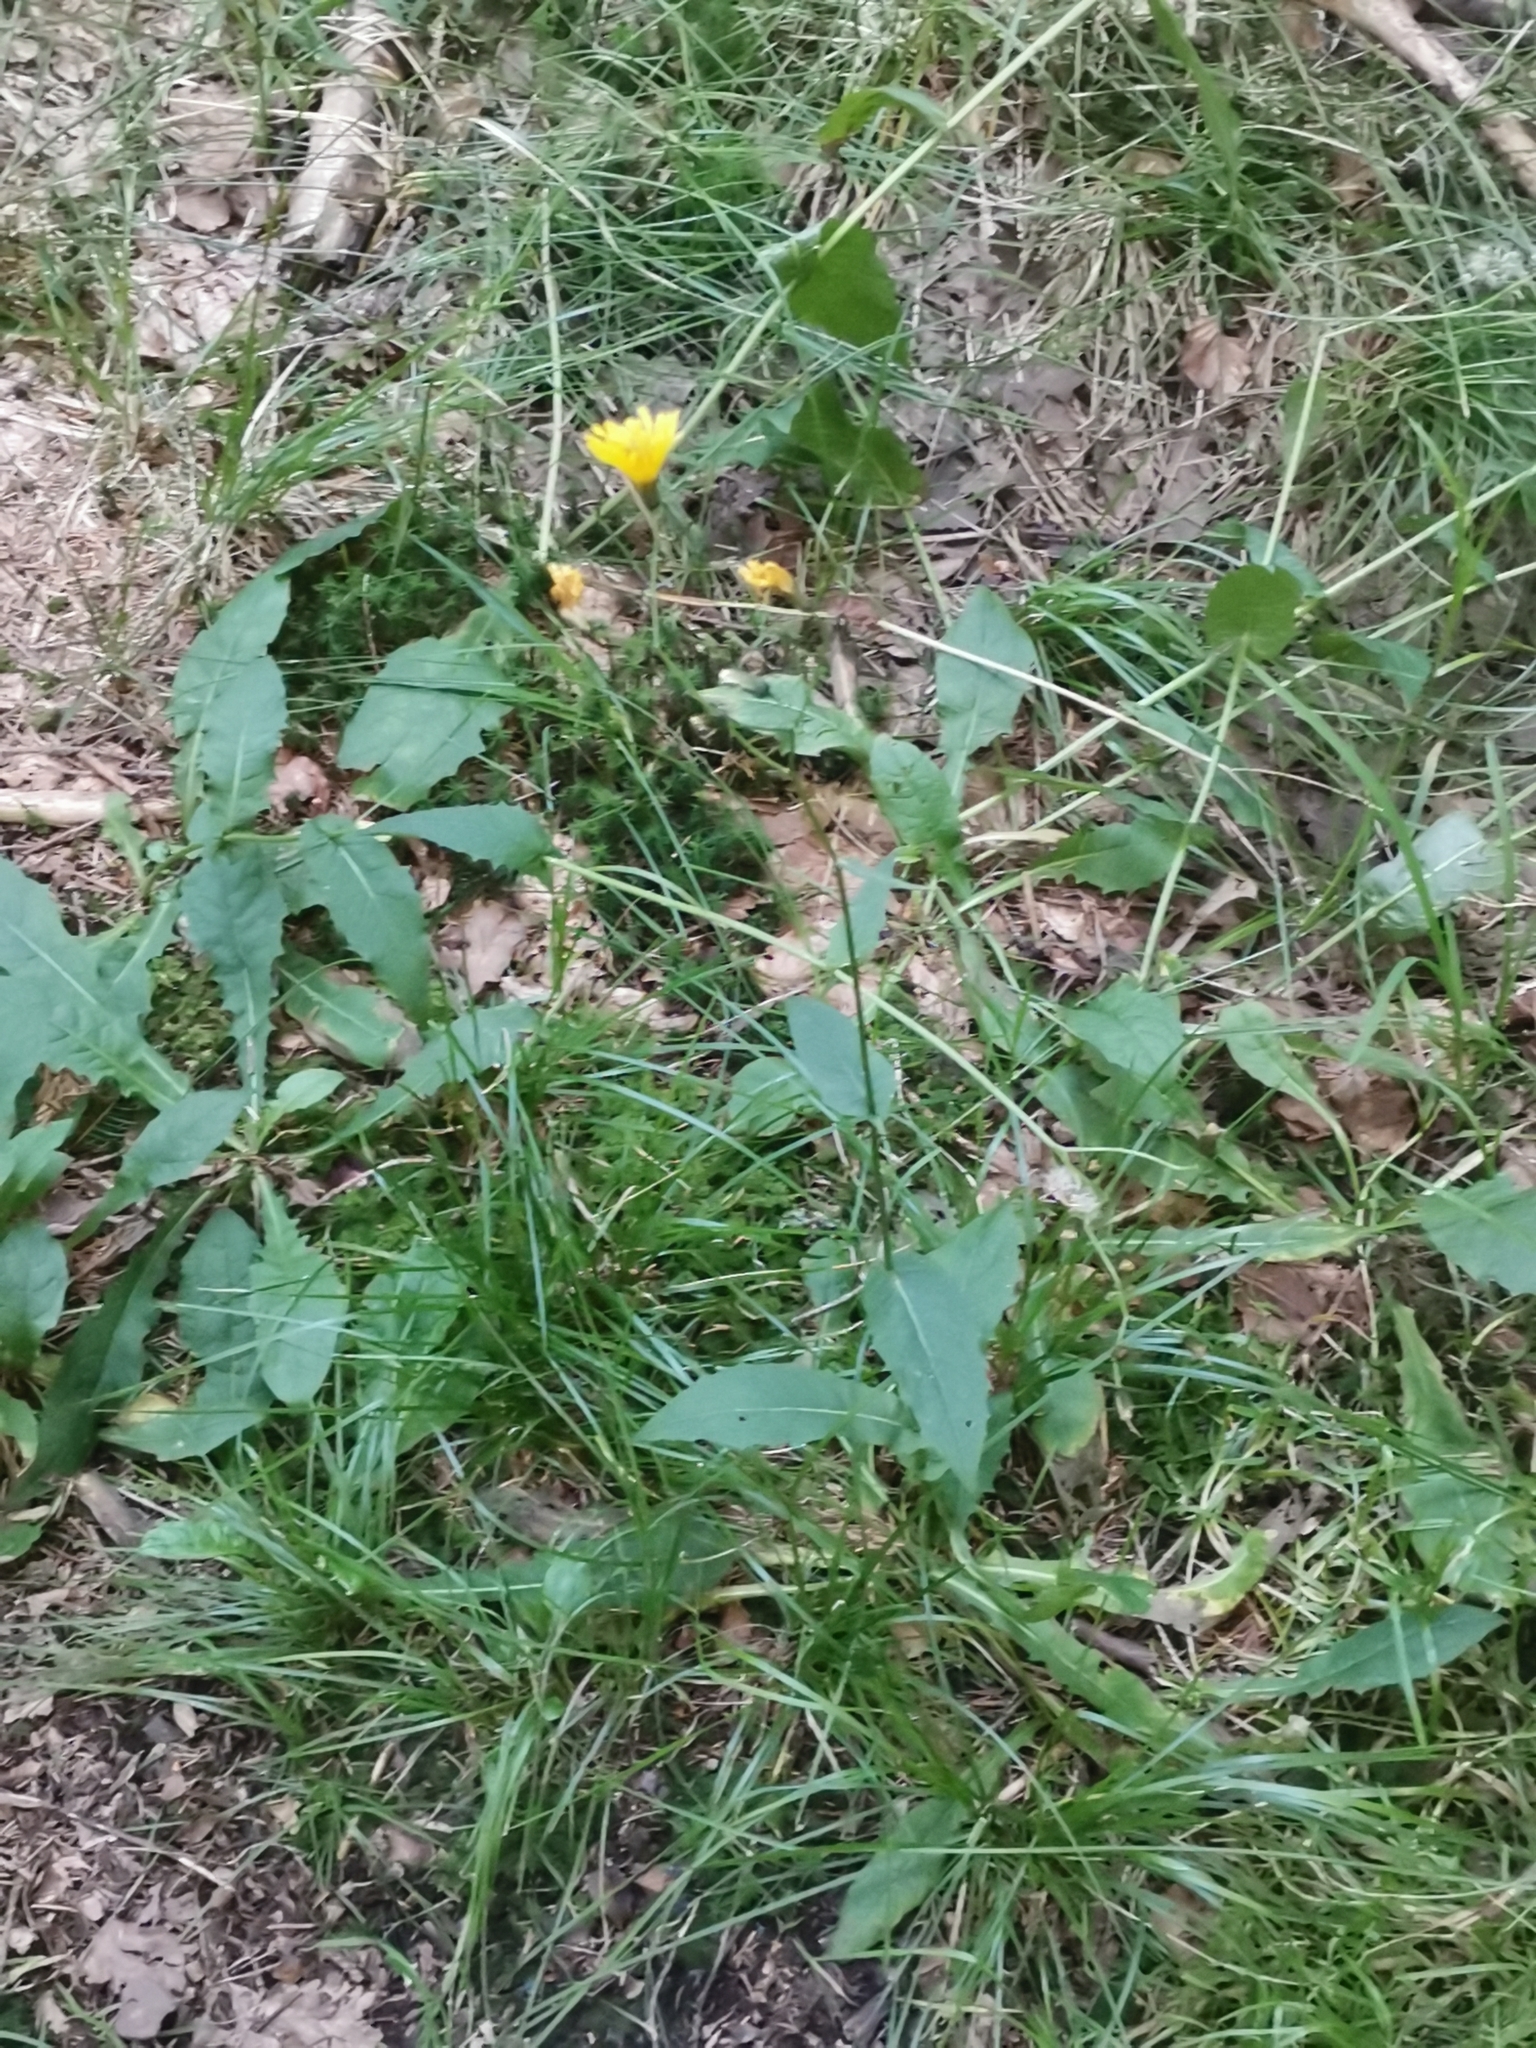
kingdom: Plantae
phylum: Tracheophyta
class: Magnoliopsida
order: Asterales
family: Asteraceae
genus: Crepis
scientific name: Crepis paludosa
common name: Marsh hawk's-beard
